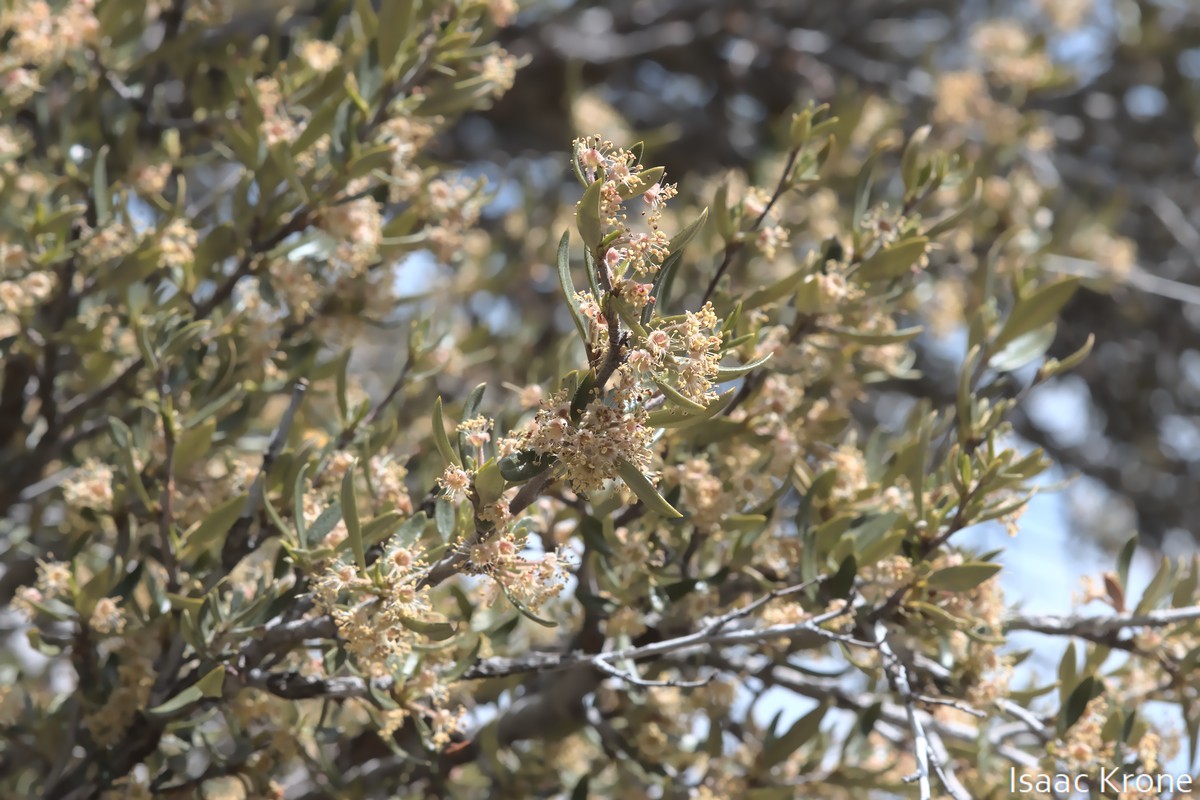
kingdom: Plantae
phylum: Tracheophyta
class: Magnoliopsida
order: Rosales
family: Rosaceae
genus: Cercocarpus
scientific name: Cercocarpus ledifolius
